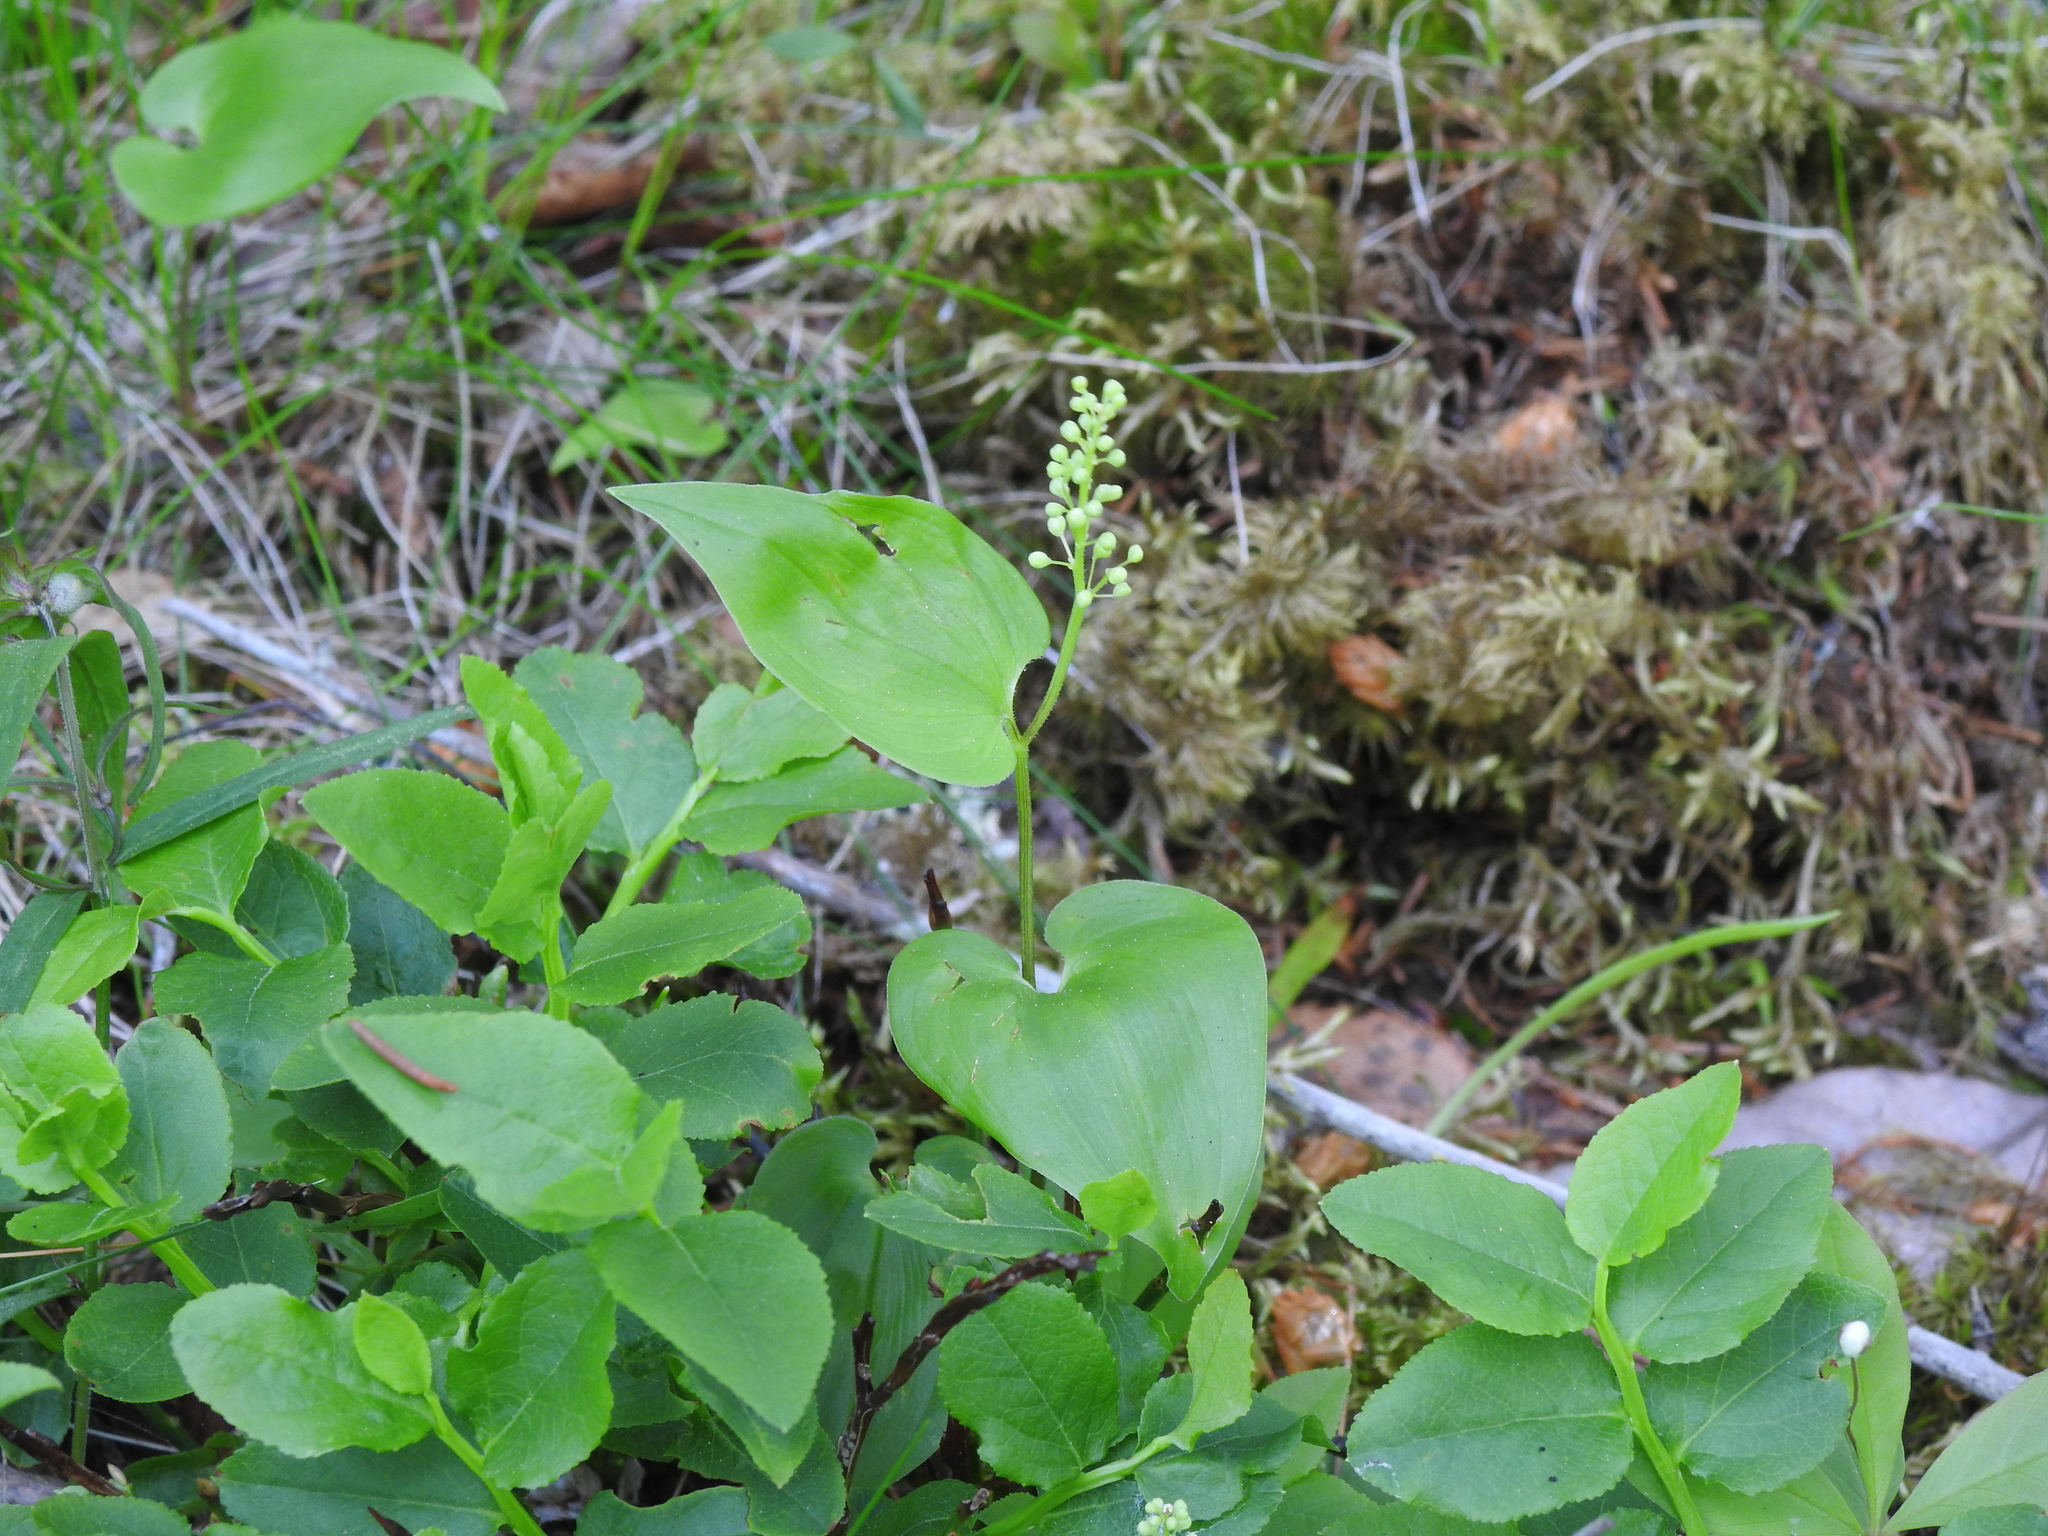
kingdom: Plantae
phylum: Tracheophyta
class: Liliopsida
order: Asparagales
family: Asparagaceae
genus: Maianthemum
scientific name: Maianthemum bifolium
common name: May lily
